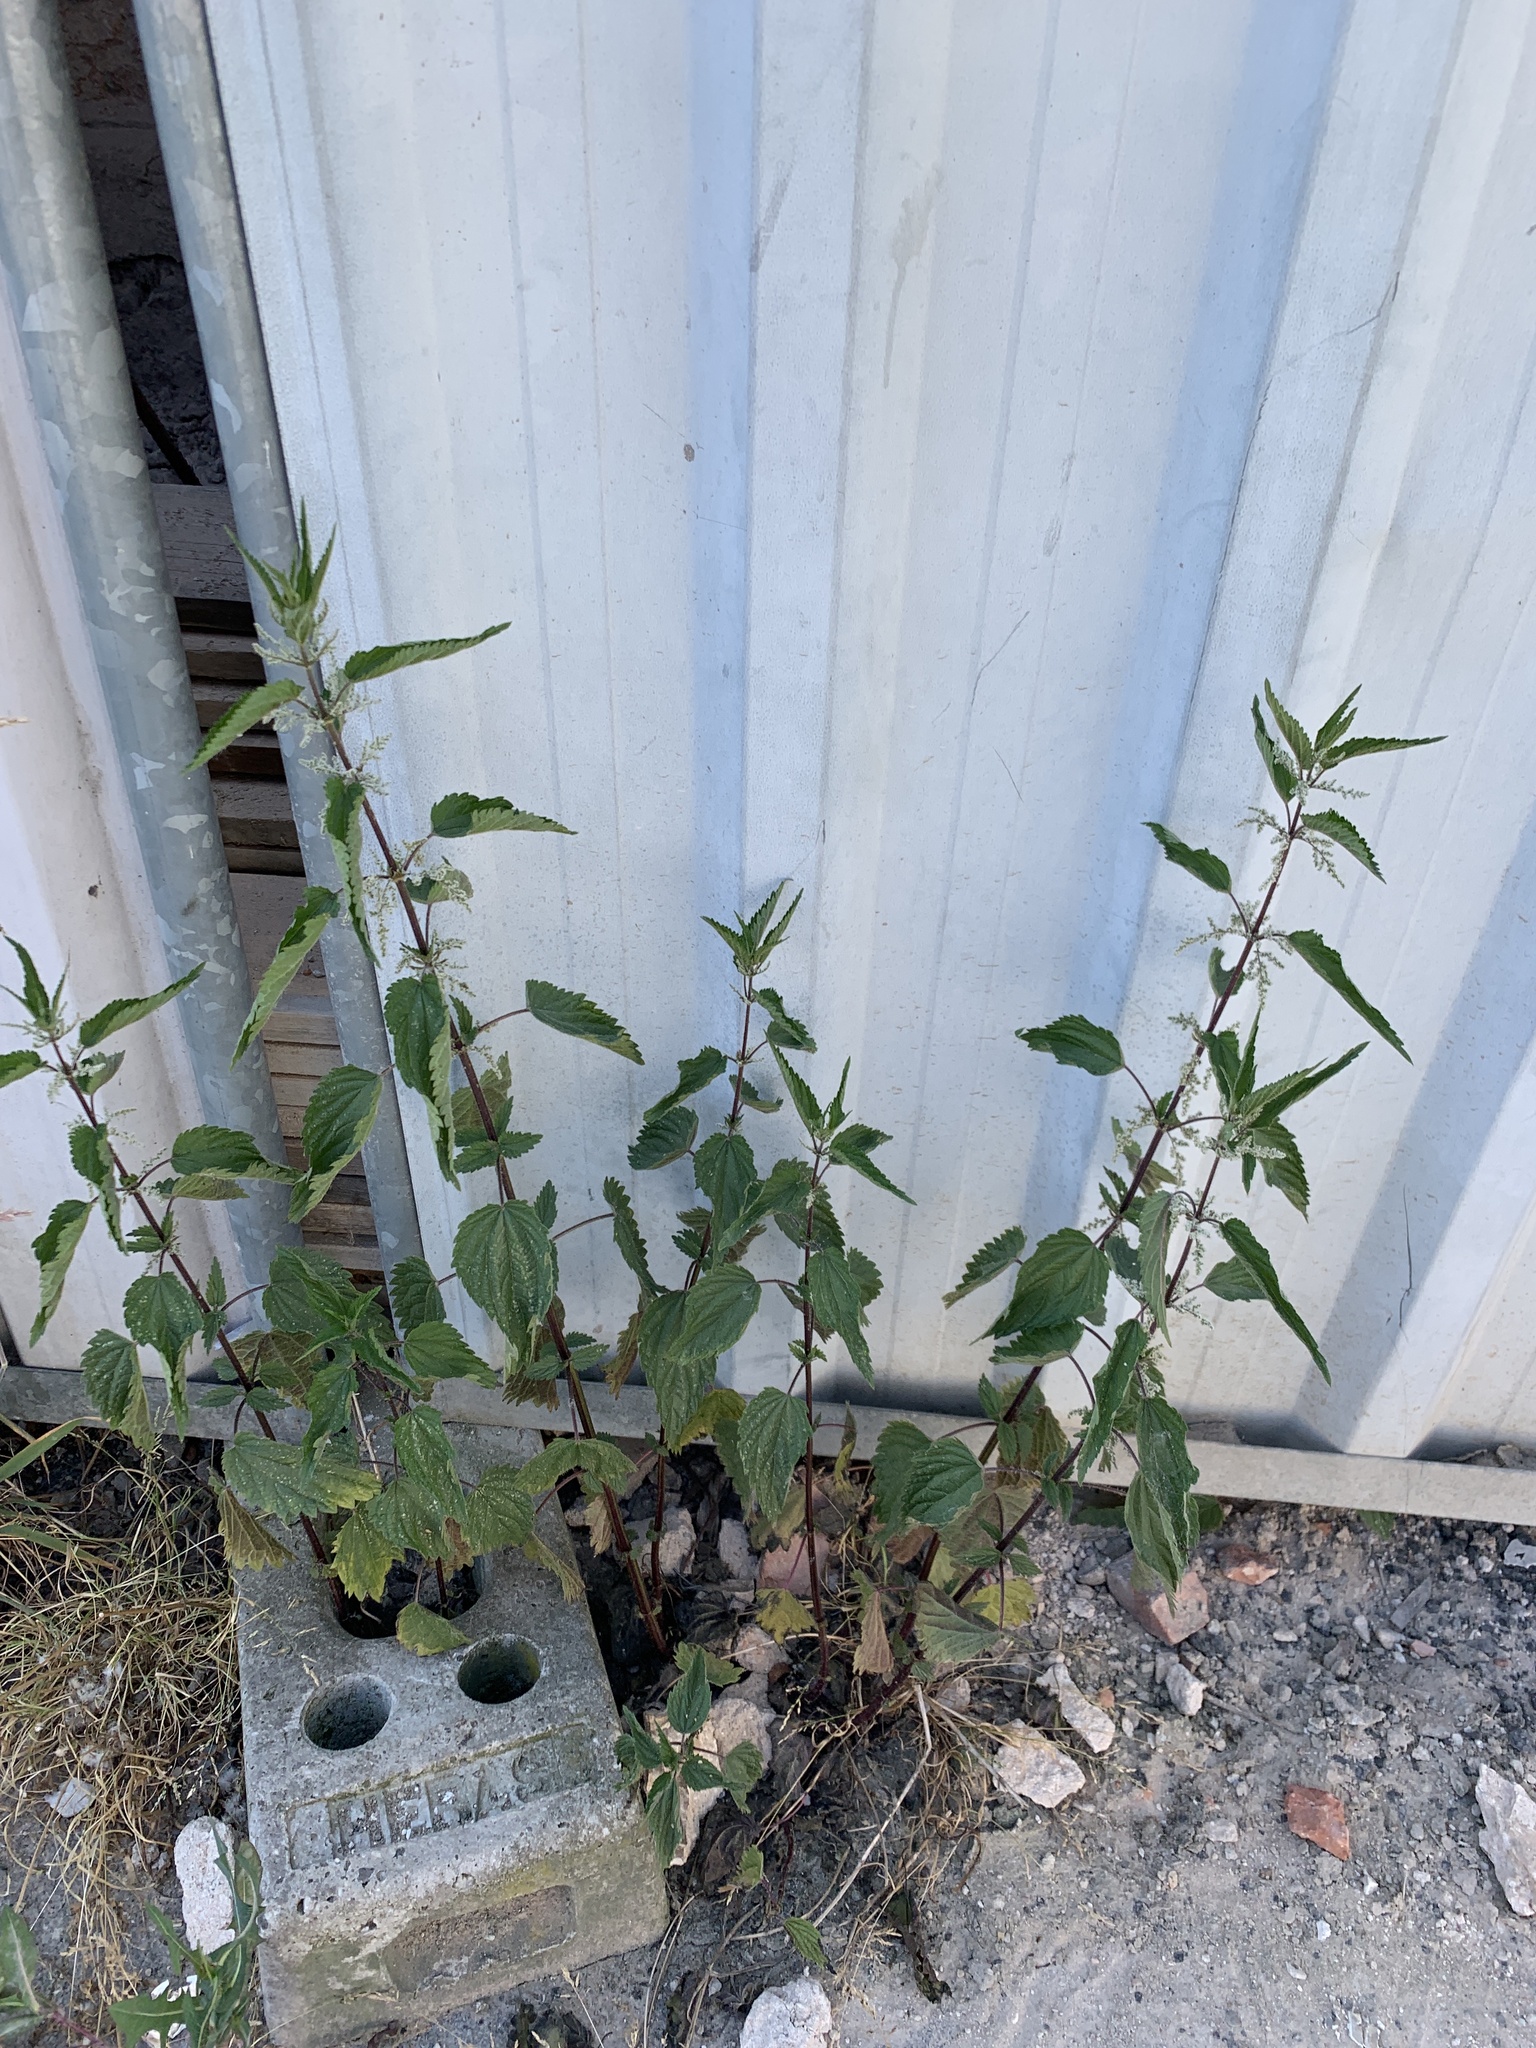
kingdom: Plantae
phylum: Tracheophyta
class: Magnoliopsida
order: Rosales
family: Urticaceae
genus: Urtica
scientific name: Urtica dioica
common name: Common nettle
